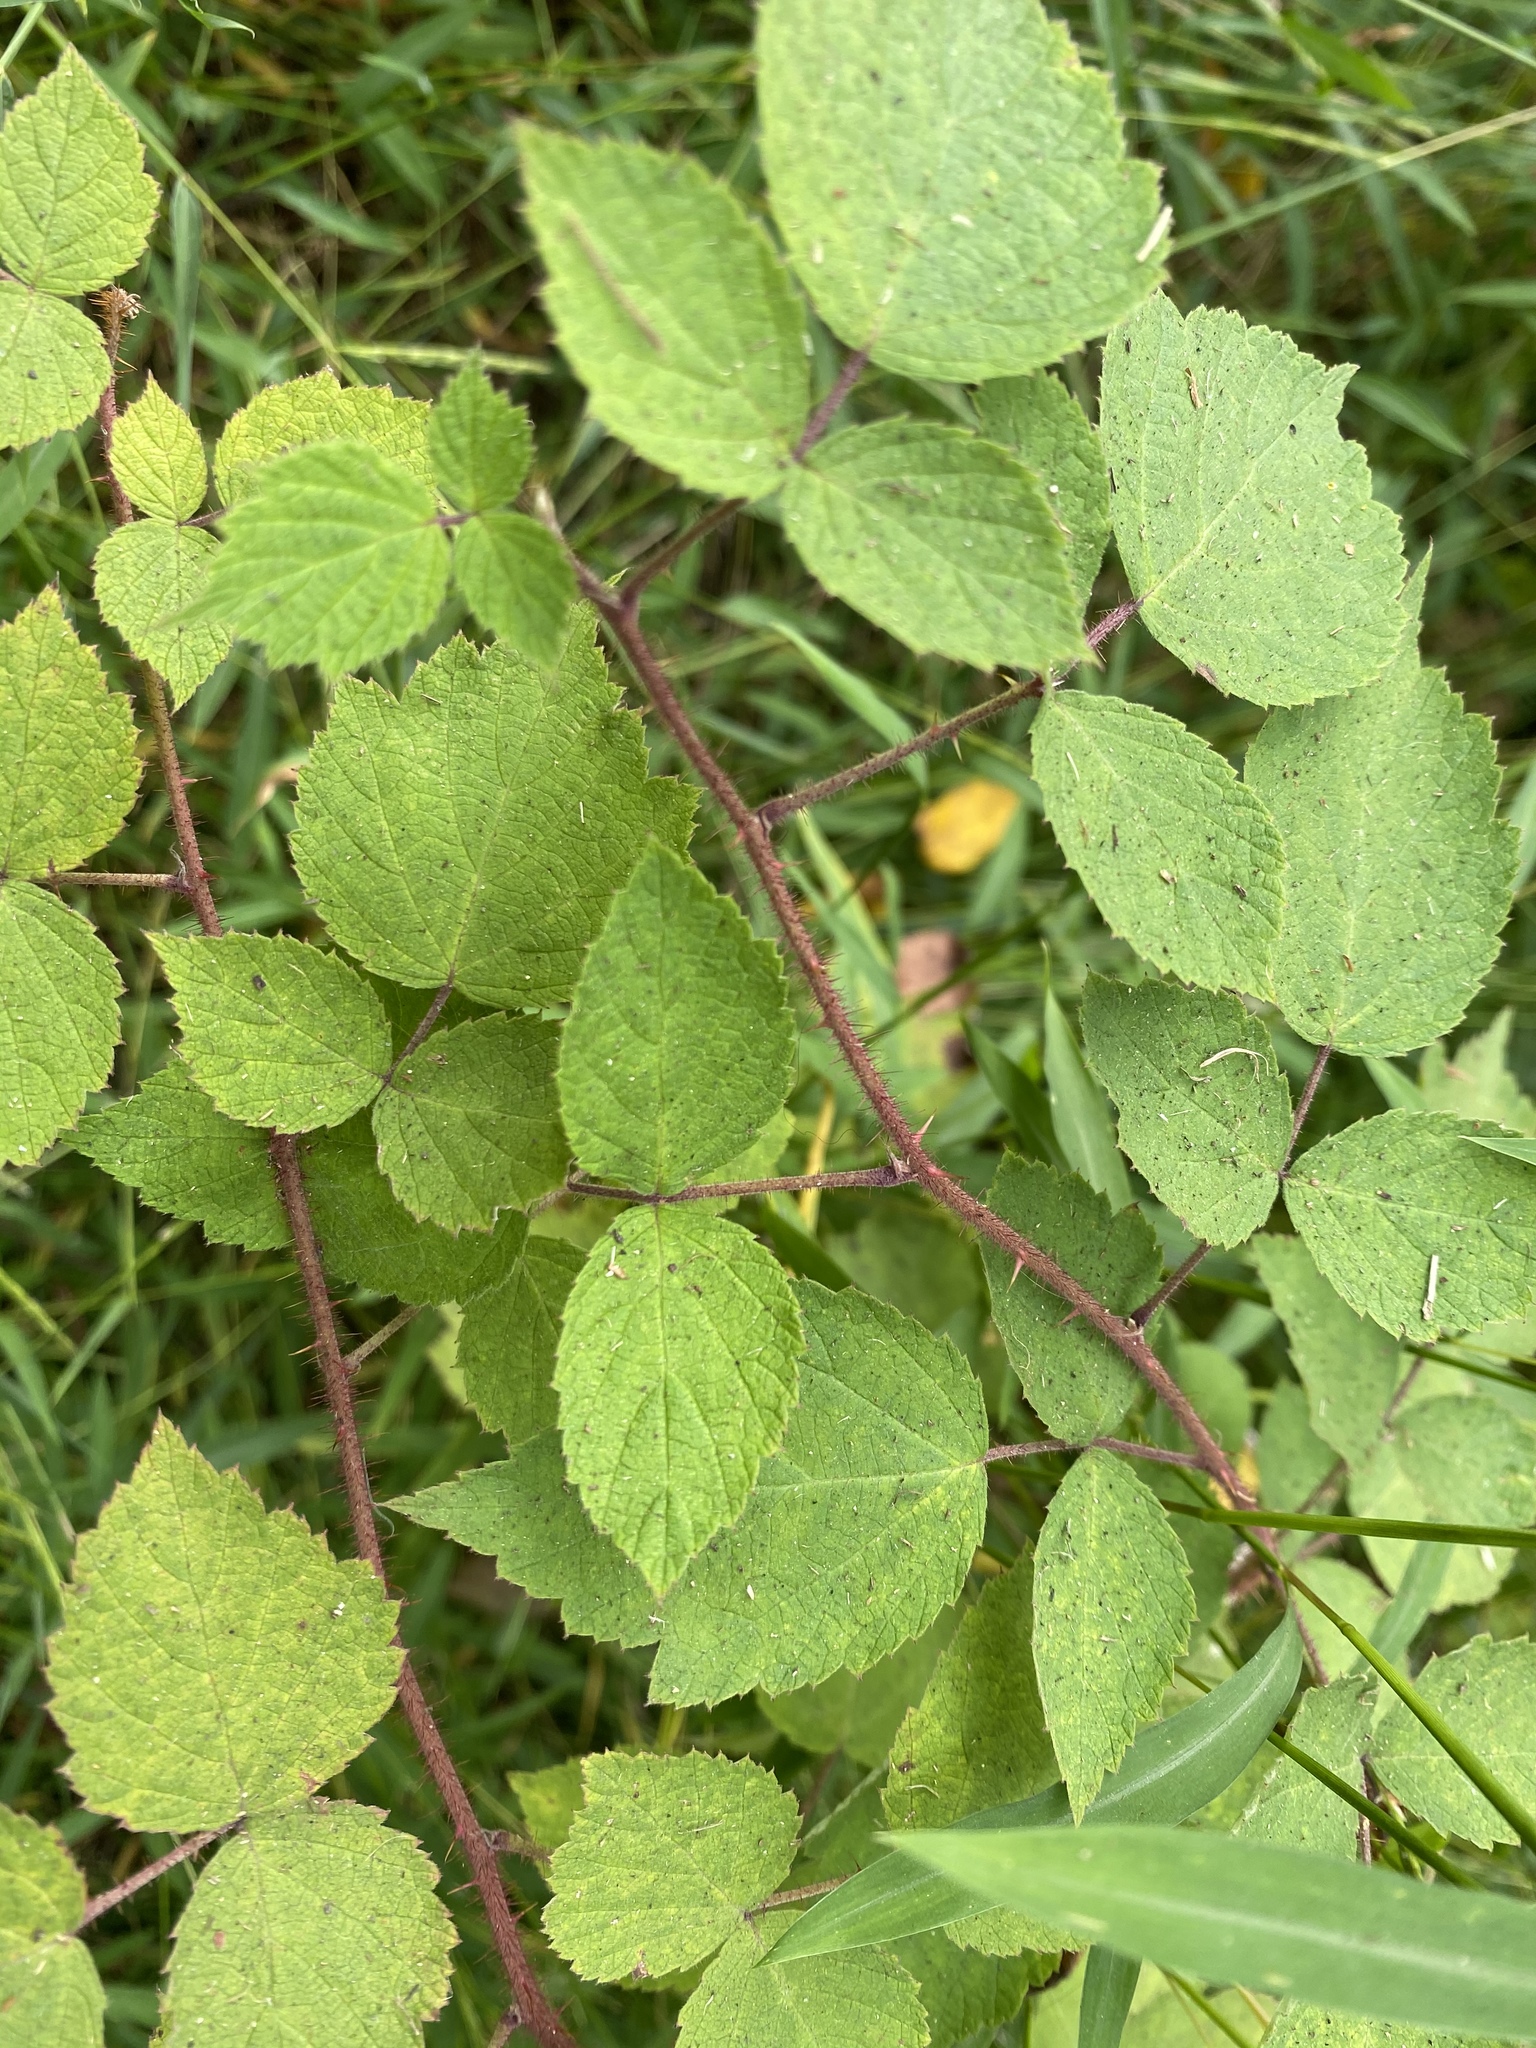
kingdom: Plantae
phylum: Tracheophyta
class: Magnoliopsida
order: Rosales
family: Rosaceae
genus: Rubus
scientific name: Rubus phoenicolasius
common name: Japanese wineberry
